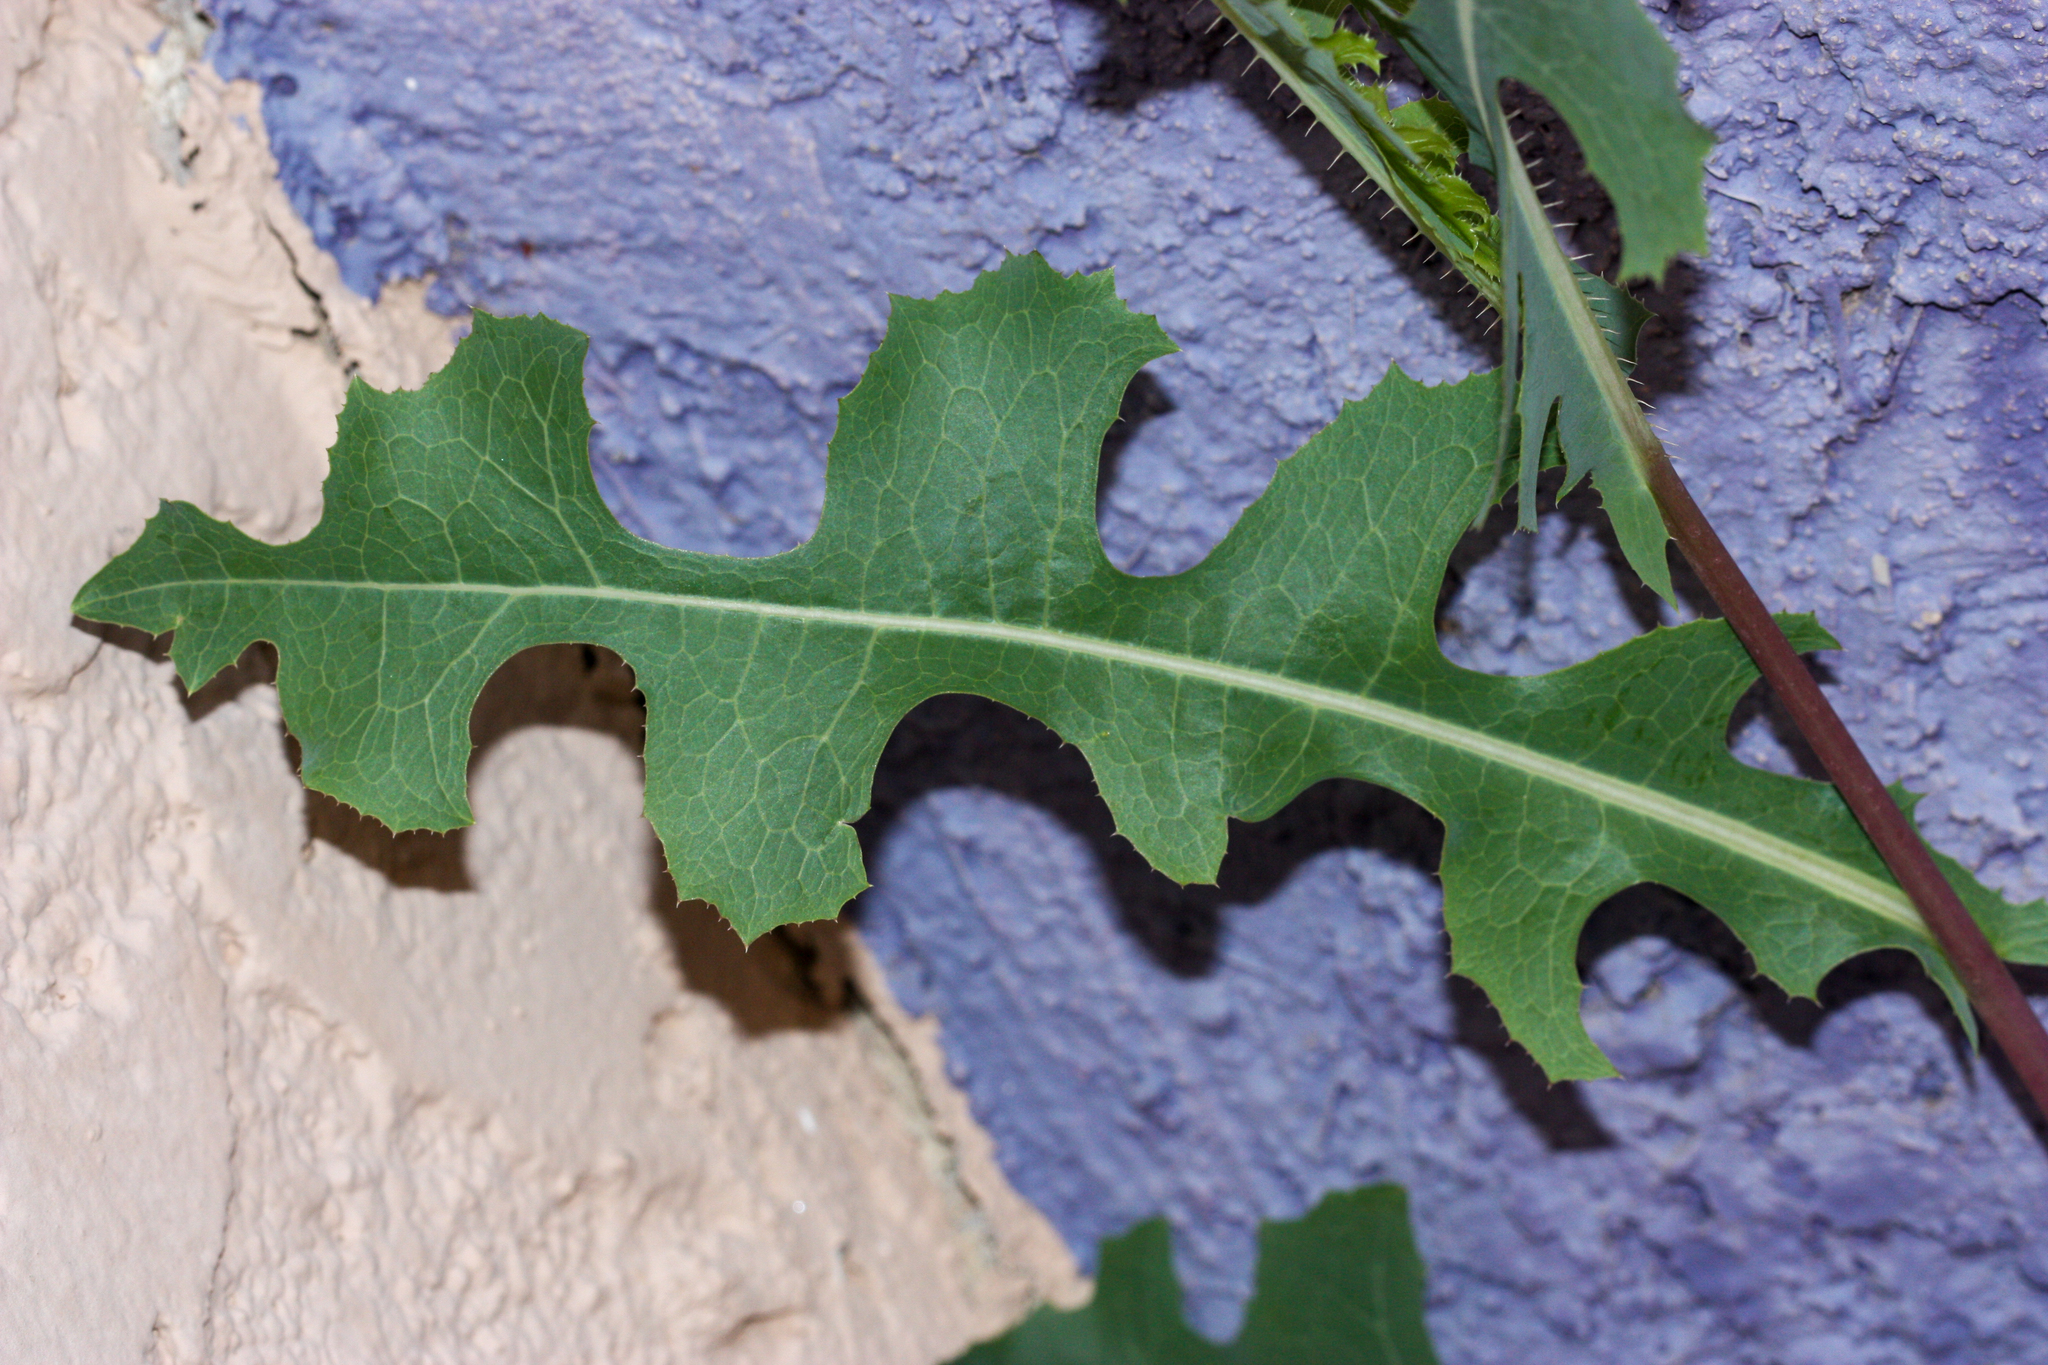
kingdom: Plantae
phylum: Tracheophyta
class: Magnoliopsida
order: Asterales
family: Asteraceae
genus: Lactuca
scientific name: Lactuca serriola
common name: Prickly lettuce
